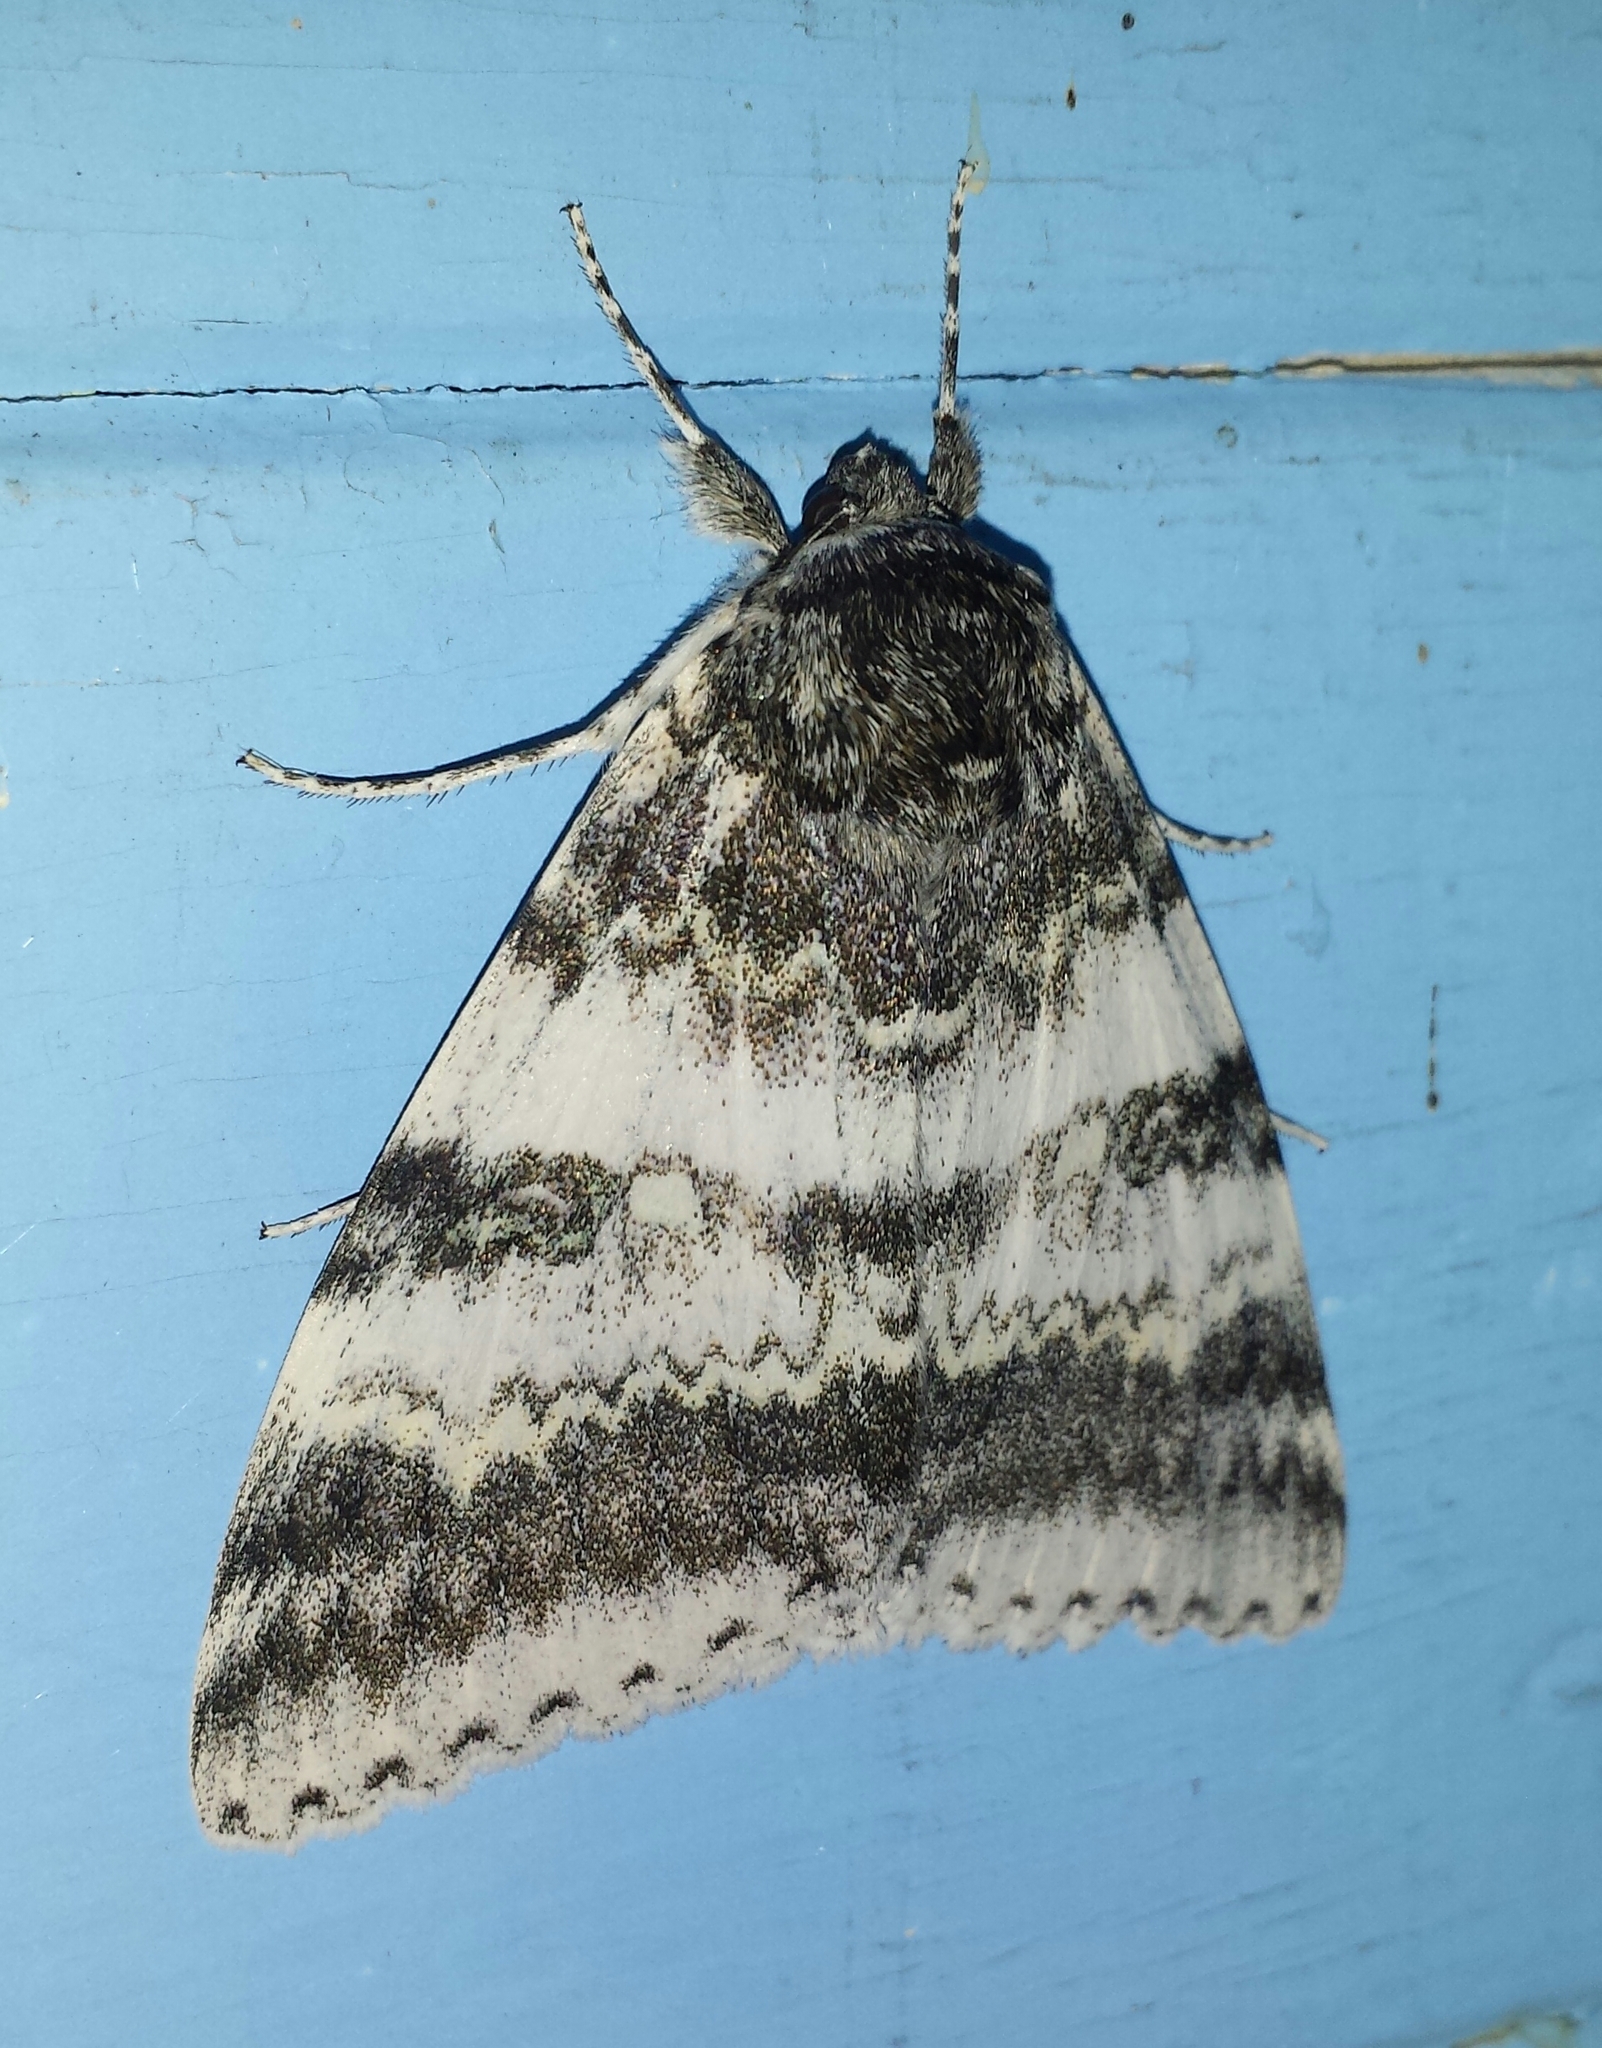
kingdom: Animalia
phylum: Arthropoda
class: Insecta
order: Lepidoptera
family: Erebidae
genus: Catocala
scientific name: Catocala relicta
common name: White underwing
